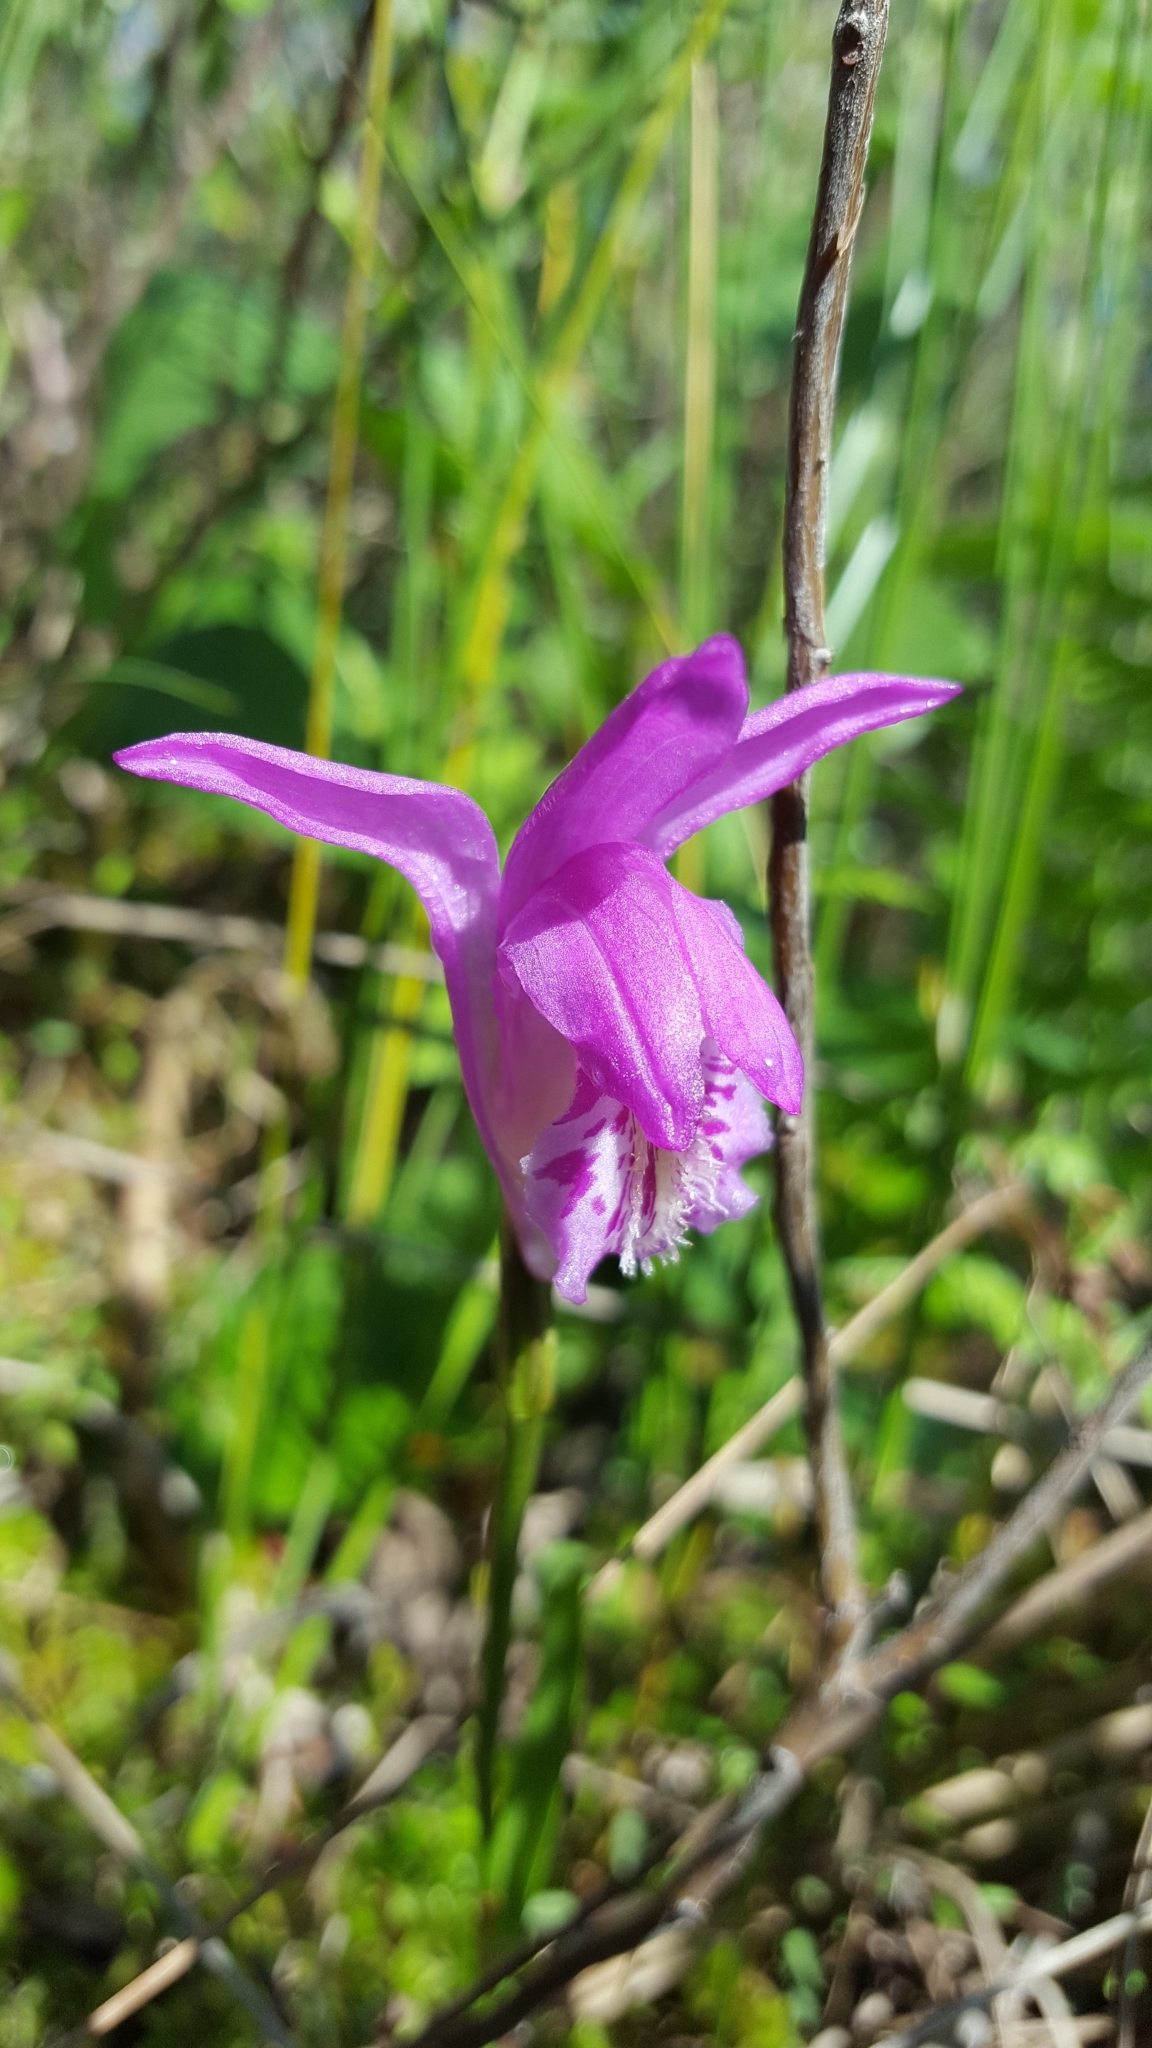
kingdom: Plantae
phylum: Tracheophyta
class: Liliopsida
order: Asparagales
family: Orchidaceae
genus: Arethusa
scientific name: Arethusa bulbosa
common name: Arethusa
